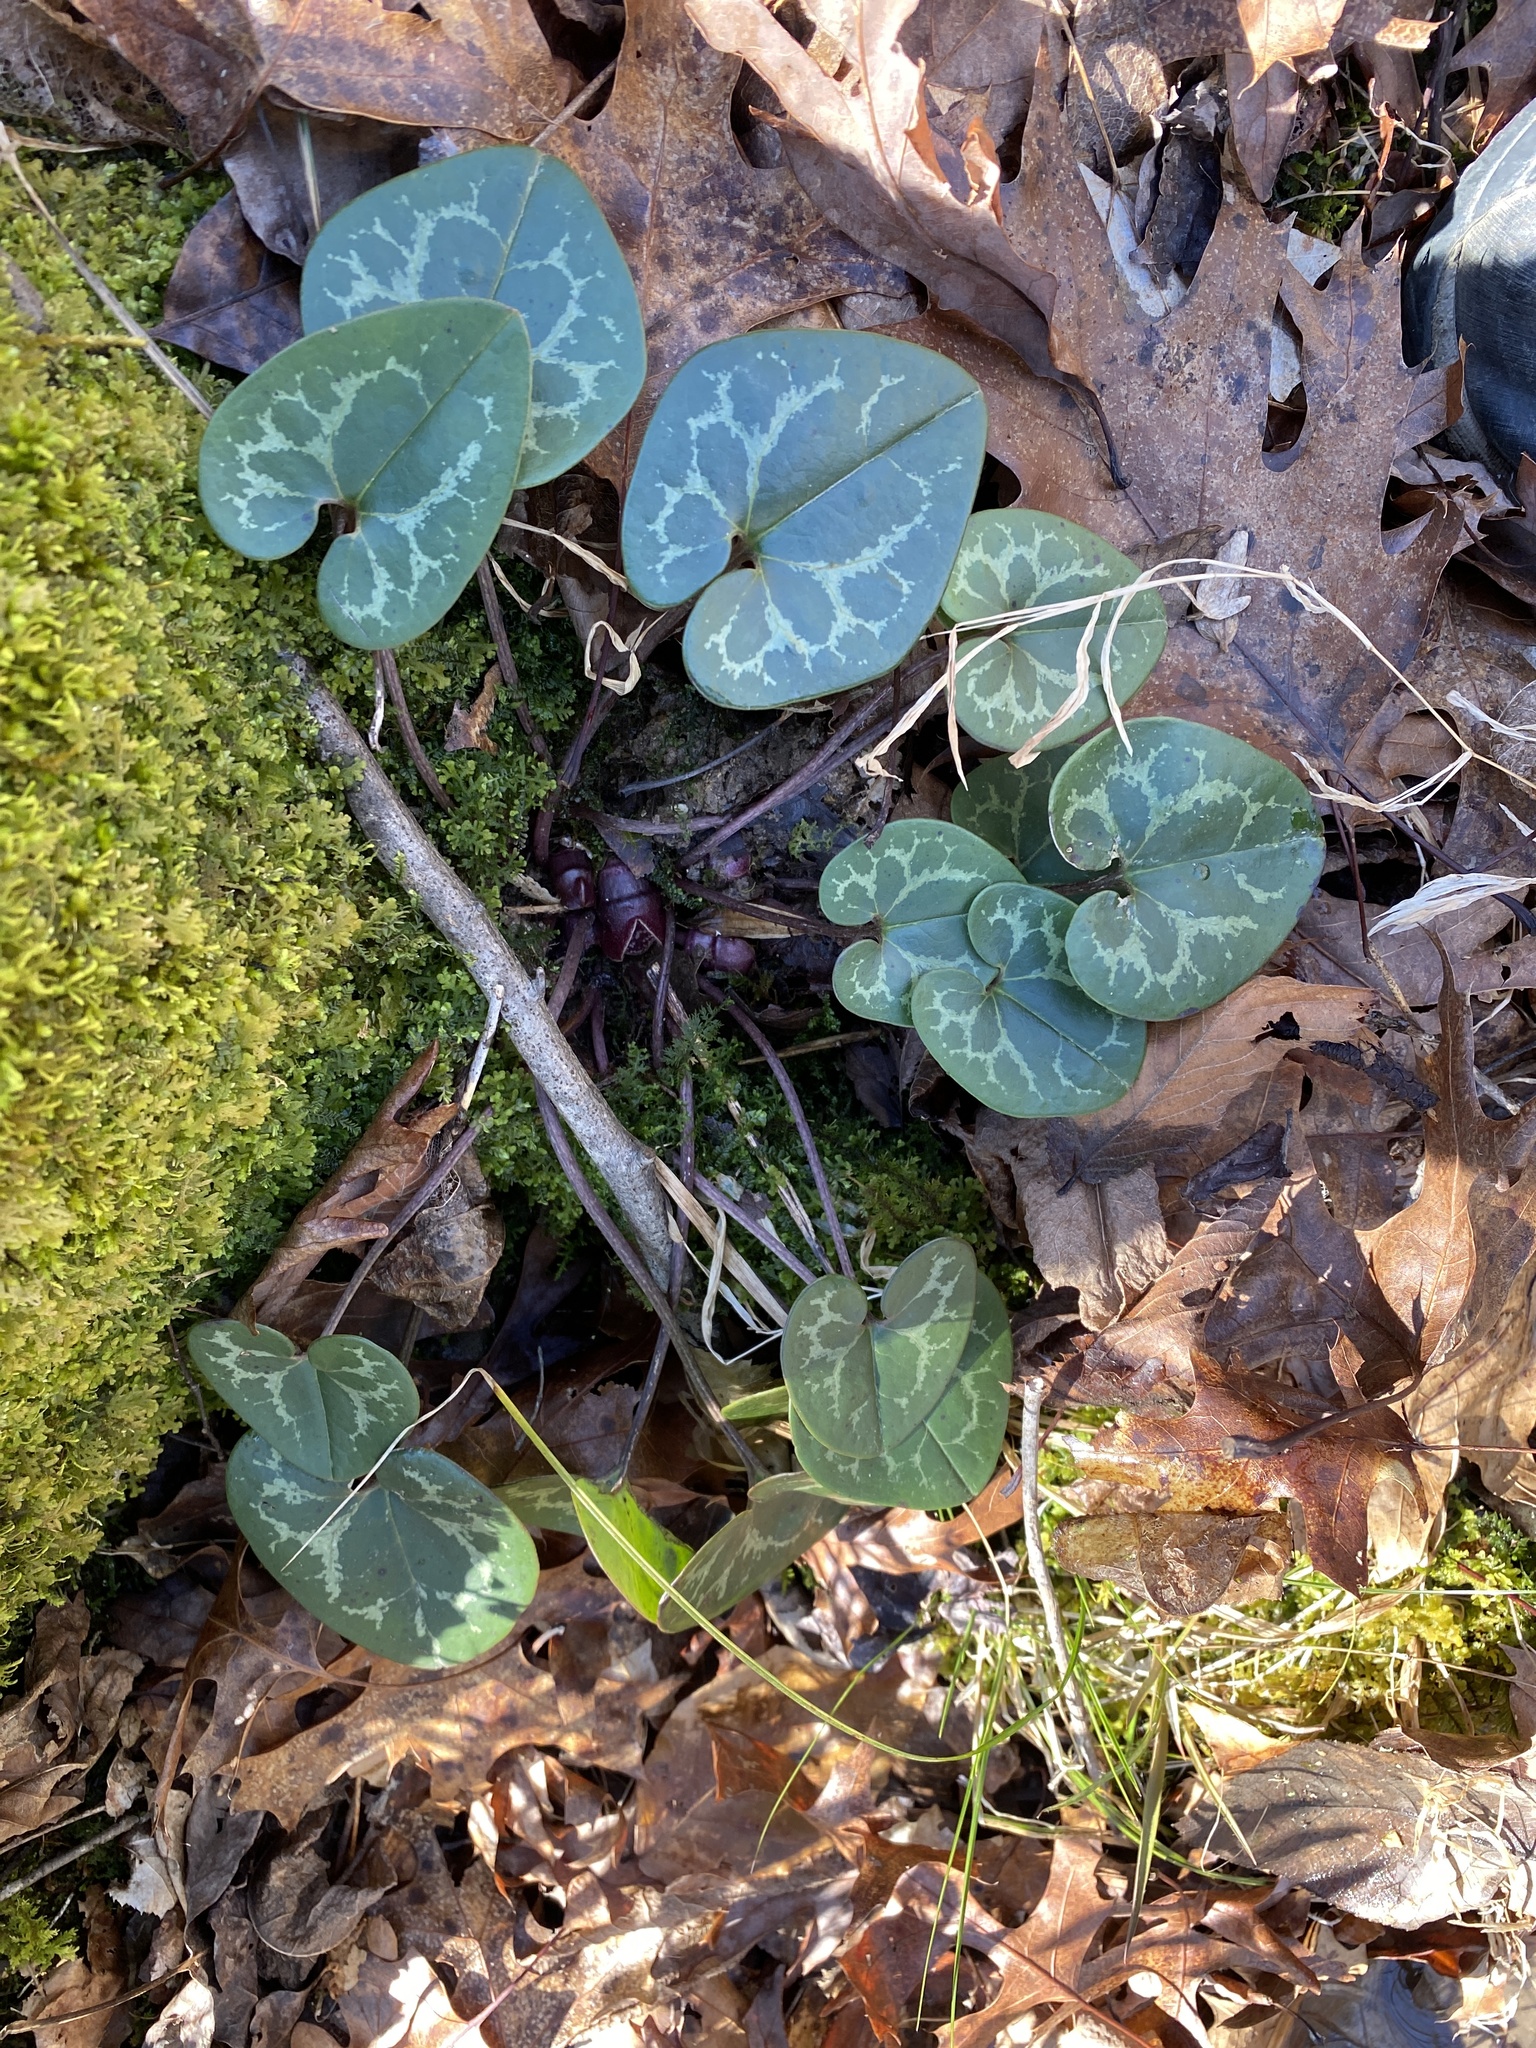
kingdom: Plantae
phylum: Tracheophyta
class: Magnoliopsida
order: Piperales
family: Aristolochiaceae
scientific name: Aristolochiaceae
